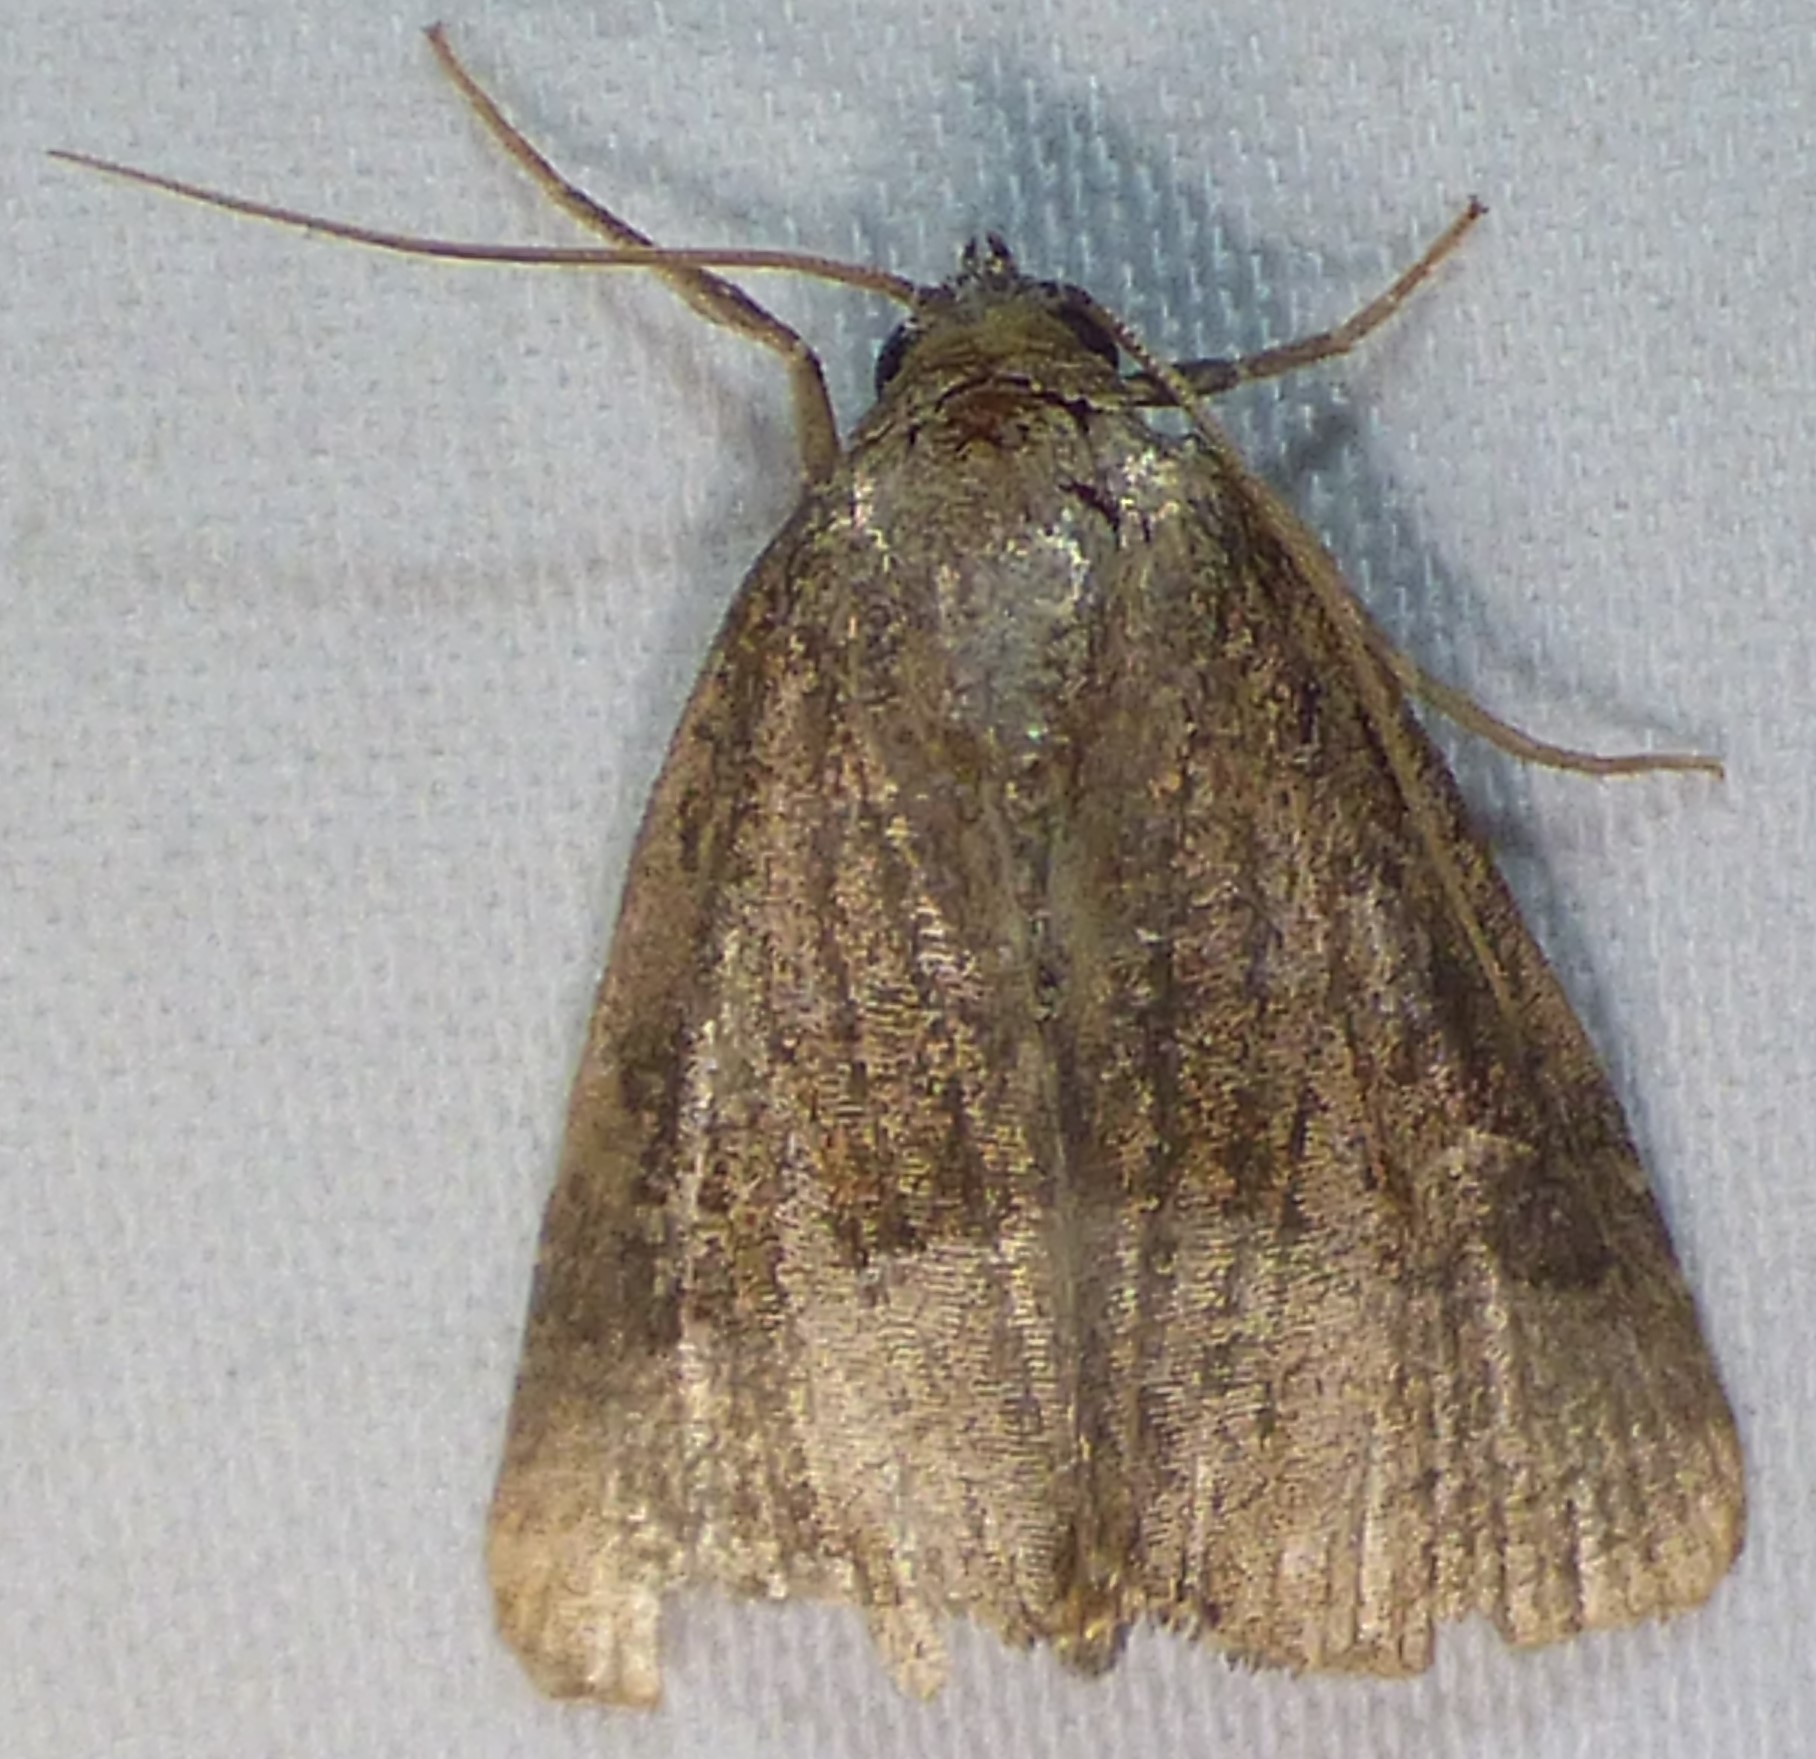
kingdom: Animalia
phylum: Arthropoda
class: Insecta
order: Lepidoptera
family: Noctuidae
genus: Ogdoconta
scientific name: Ogdoconta cinereola
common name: Common pinkband
